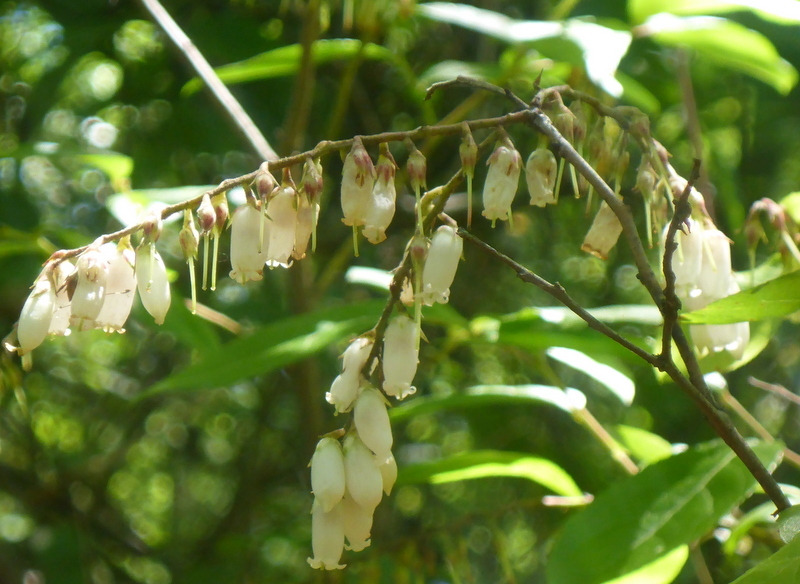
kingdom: Plantae
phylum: Tracheophyta
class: Magnoliopsida
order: Ericales
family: Ericaceae
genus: Eubotrys
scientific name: Eubotrys racemosa
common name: Fetterbush
